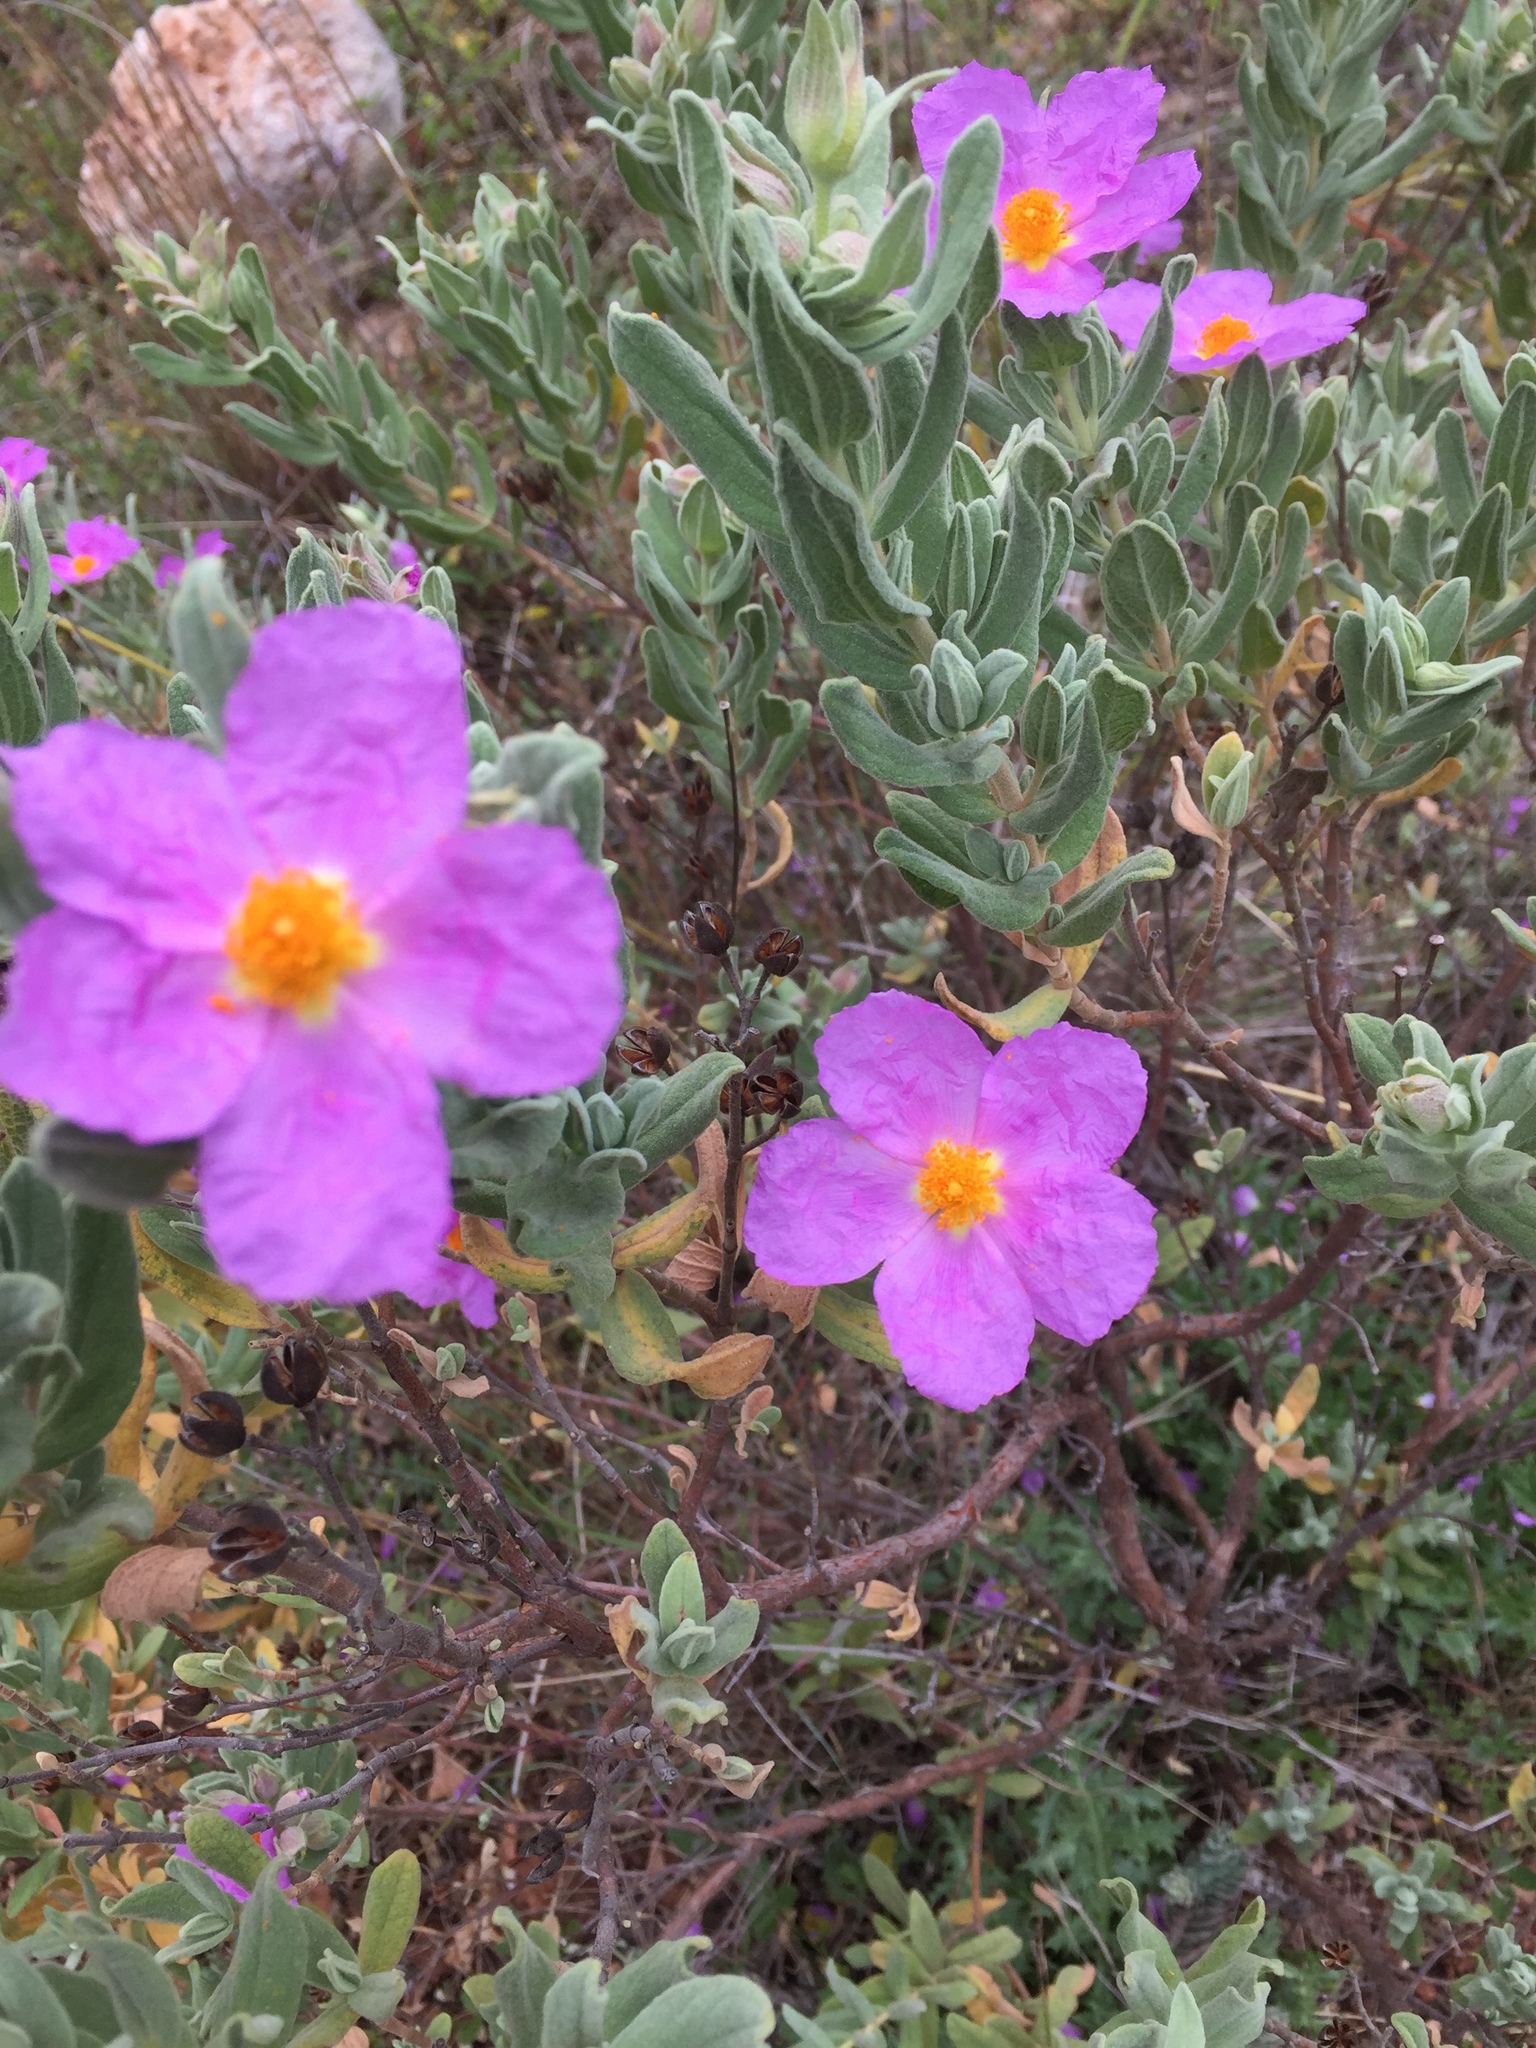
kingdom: Plantae
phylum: Tracheophyta
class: Magnoliopsida
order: Malvales
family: Cistaceae
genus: Cistus
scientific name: Cistus albidus
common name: White-leaf rock-rose
